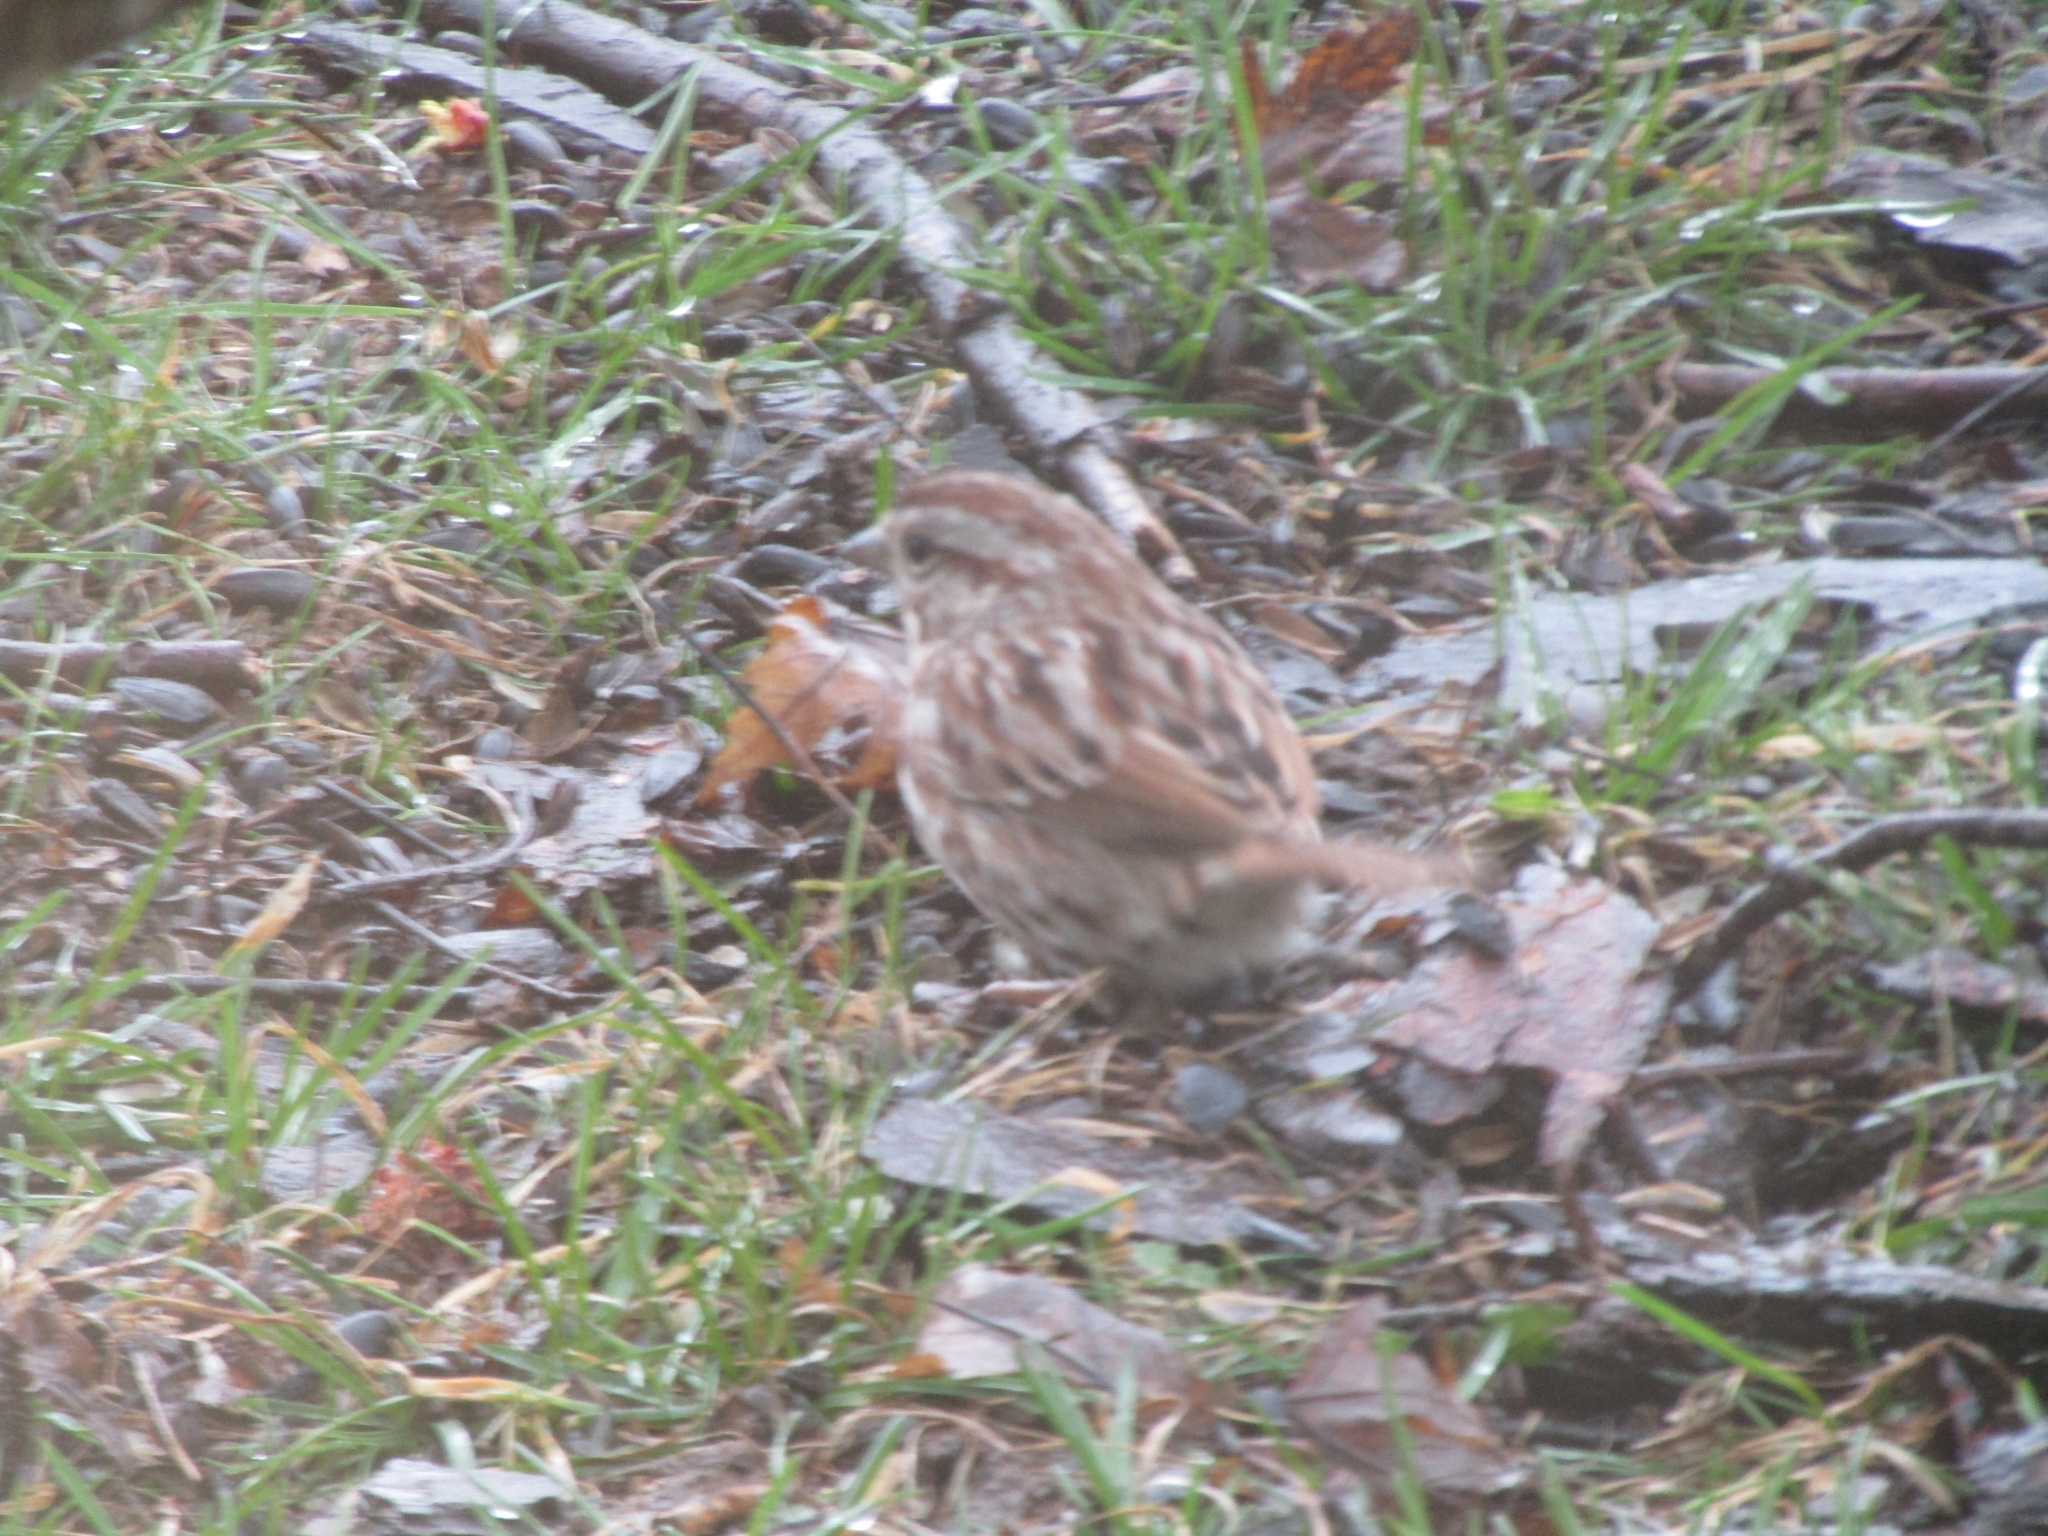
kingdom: Animalia
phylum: Chordata
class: Aves
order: Passeriformes
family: Passerellidae
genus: Melospiza
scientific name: Melospiza melodia
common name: Song sparrow
